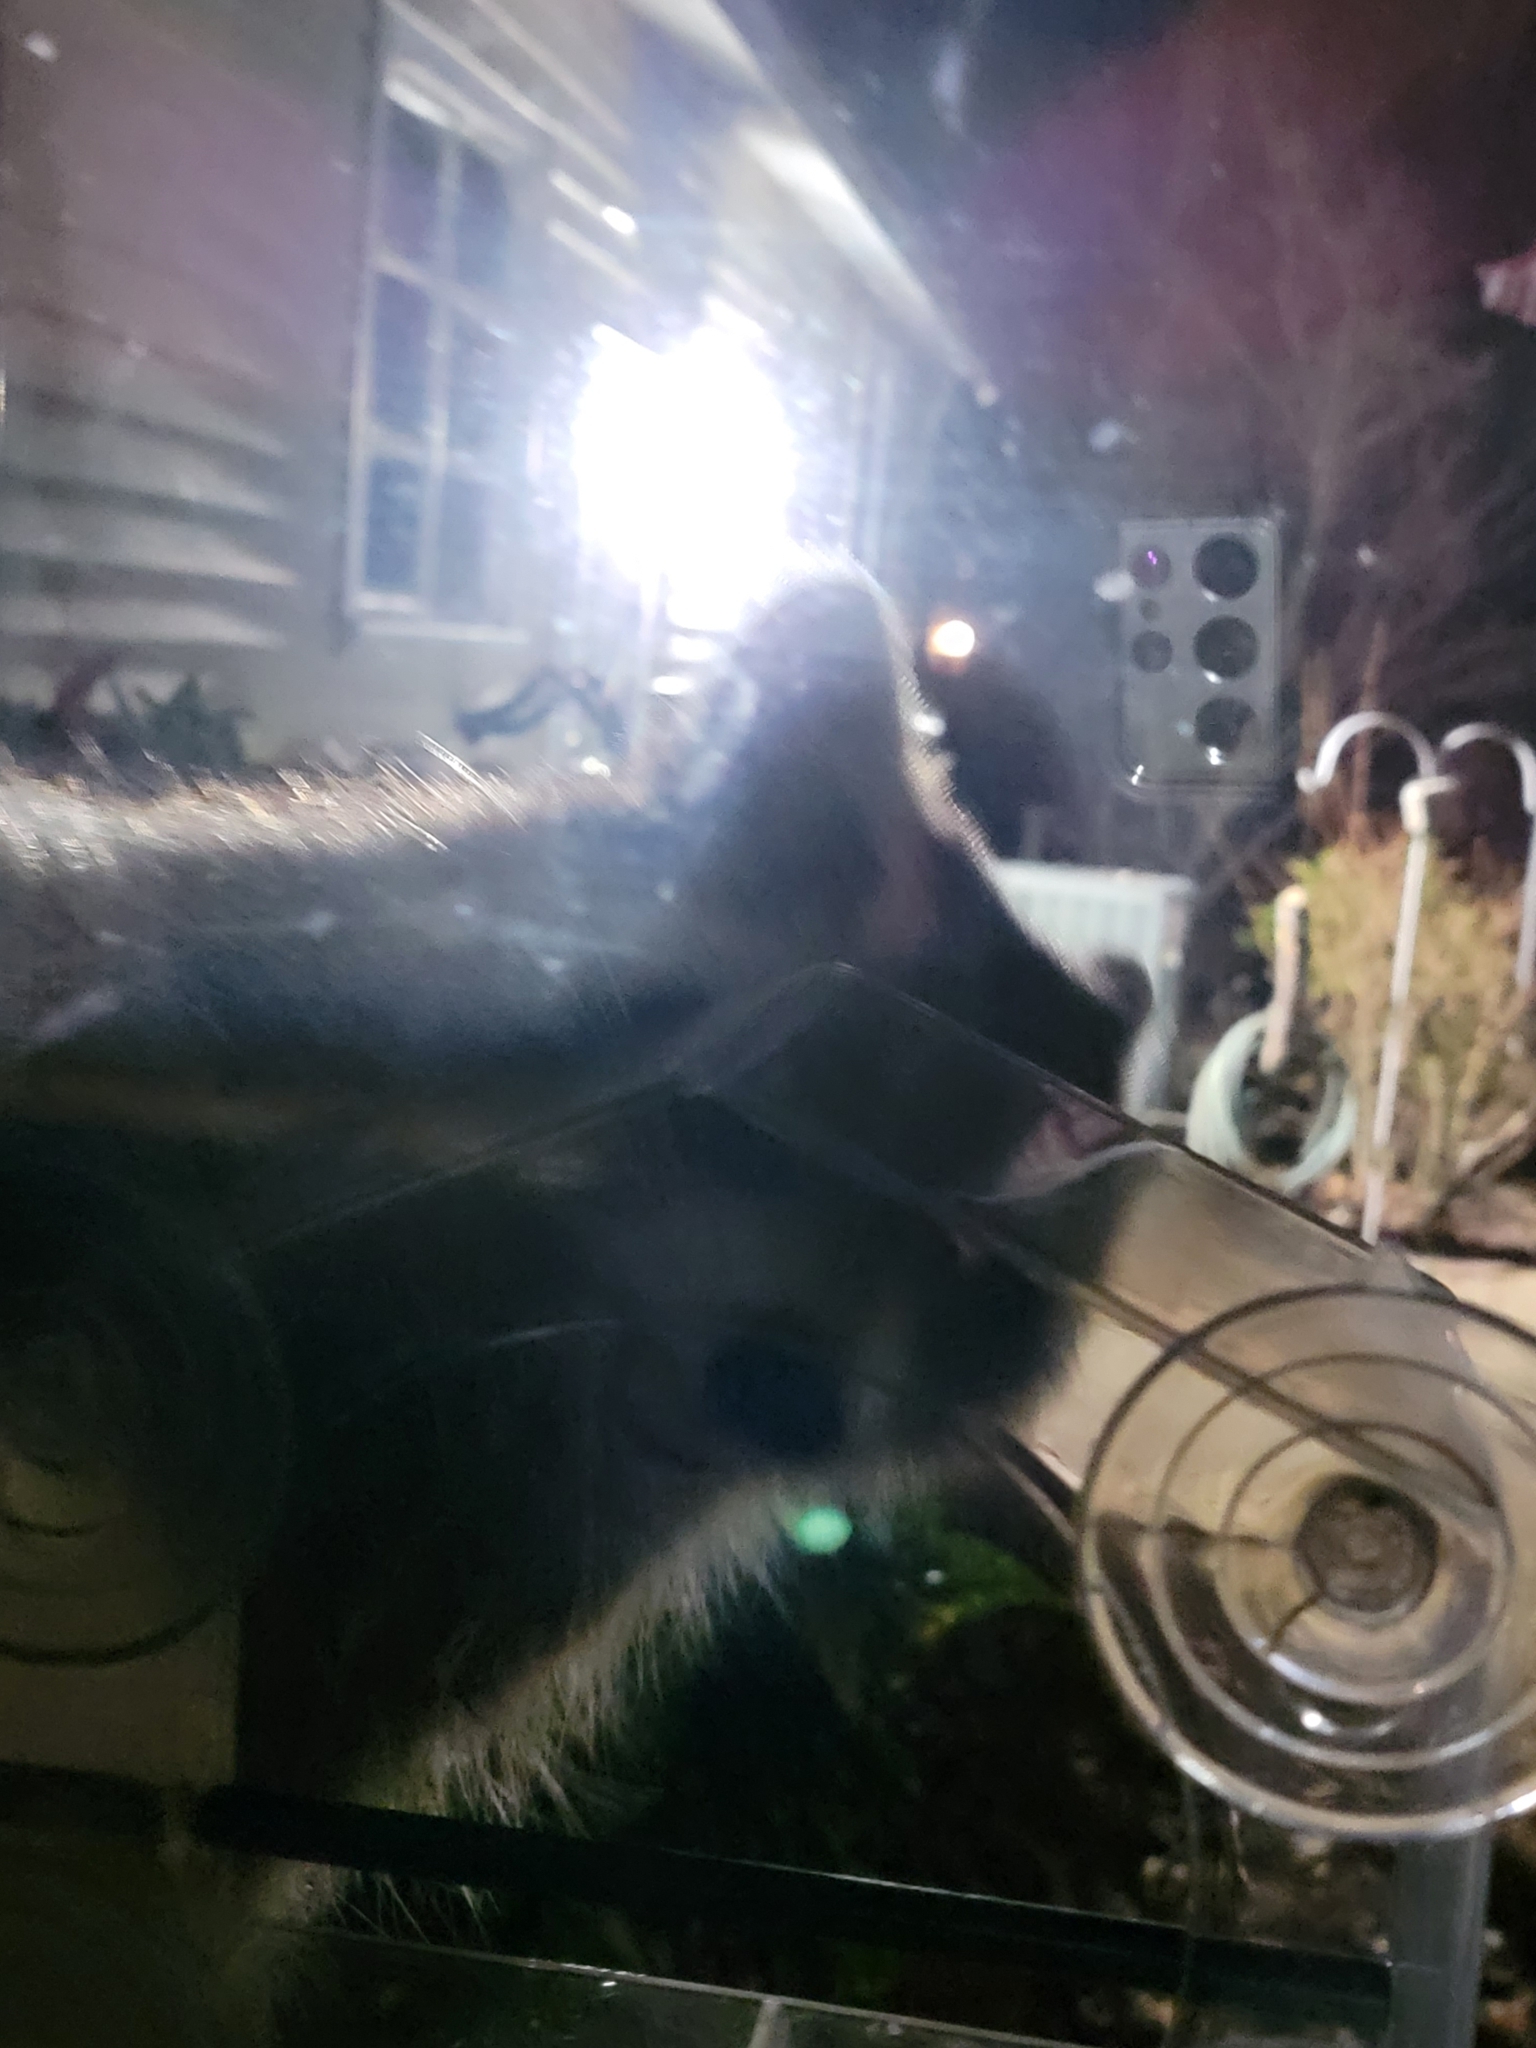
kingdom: Animalia
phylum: Chordata
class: Mammalia
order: Carnivora
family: Procyonidae
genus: Procyon
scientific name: Procyon lotor
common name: Raccoon
